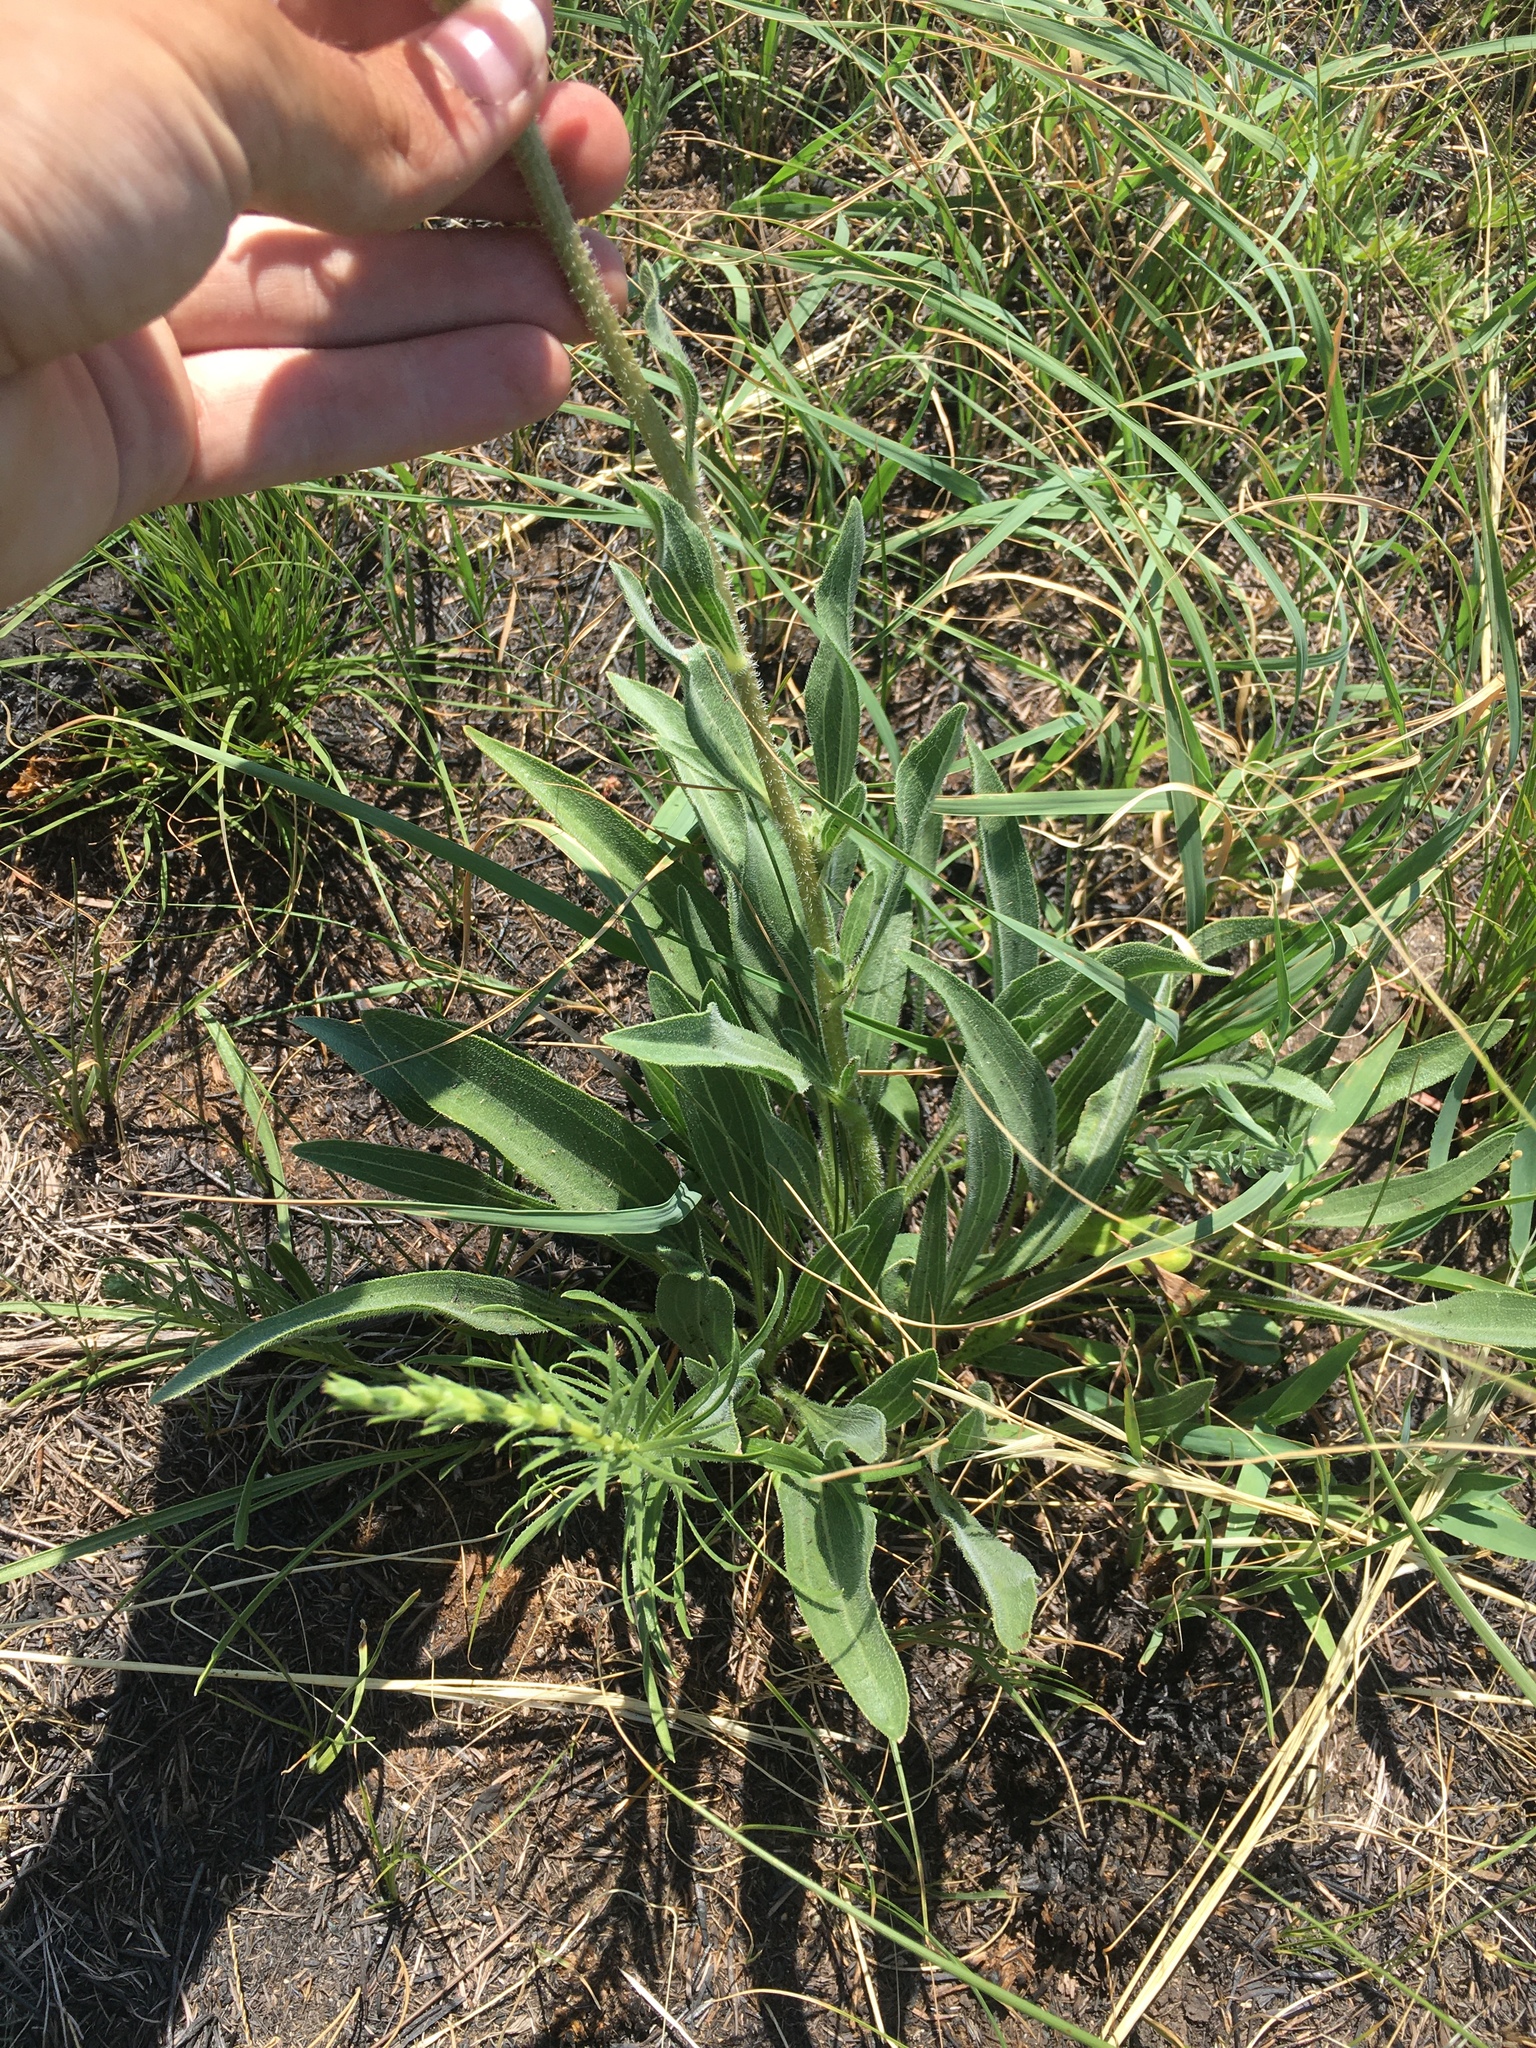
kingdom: Plantae
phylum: Tracheophyta
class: Magnoliopsida
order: Asterales
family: Asteraceae
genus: Echinacea
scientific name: Echinacea angustifolia
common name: Black-sampson echinacea
